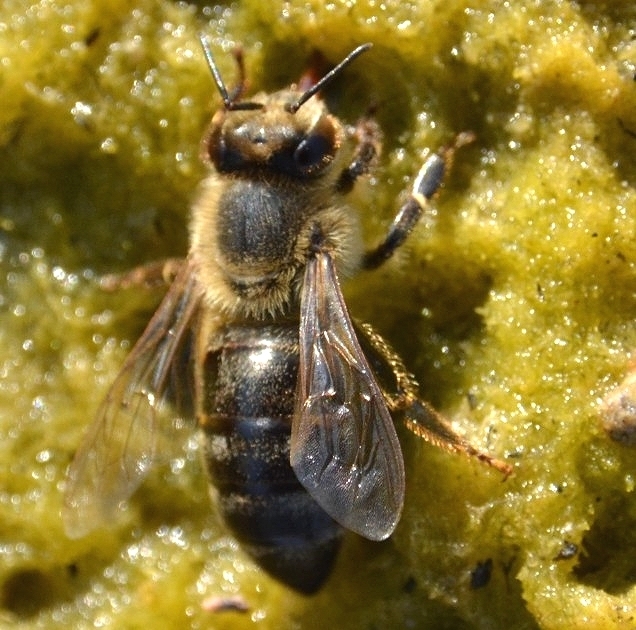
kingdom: Animalia
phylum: Arthropoda
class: Insecta
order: Hymenoptera
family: Apidae
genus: Apis
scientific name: Apis mellifera
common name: Honey bee
